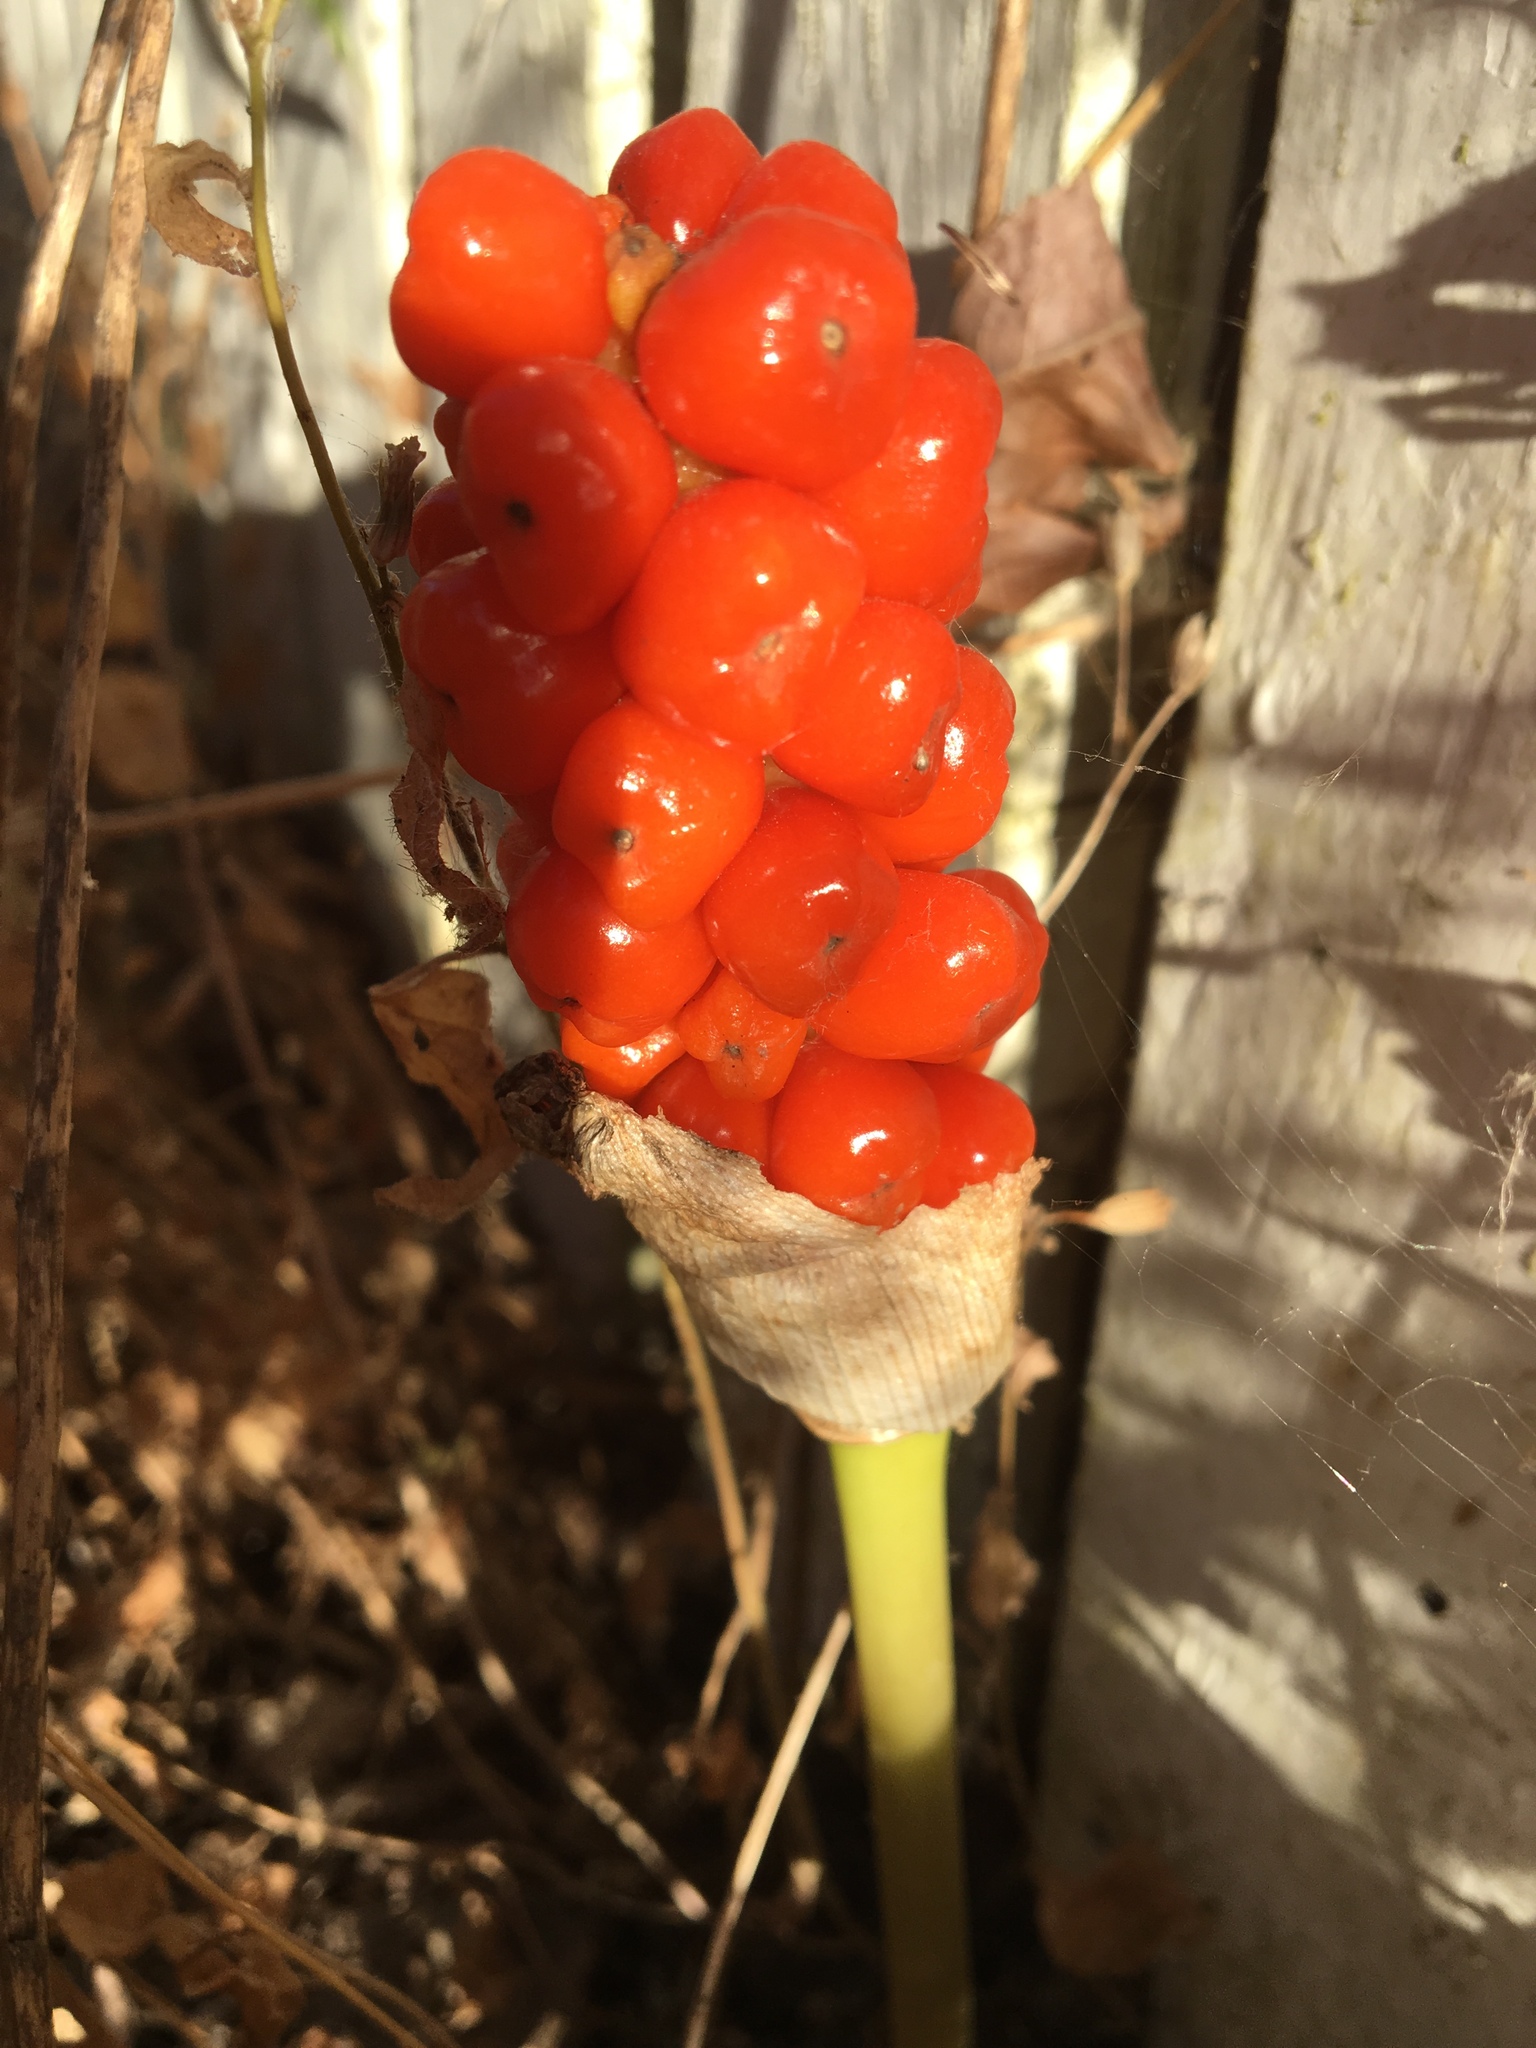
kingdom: Plantae
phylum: Tracheophyta
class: Liliopsida
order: Alismatales
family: Araceae
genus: Arum
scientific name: Arum italicum
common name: Italian lords-and-ladies
